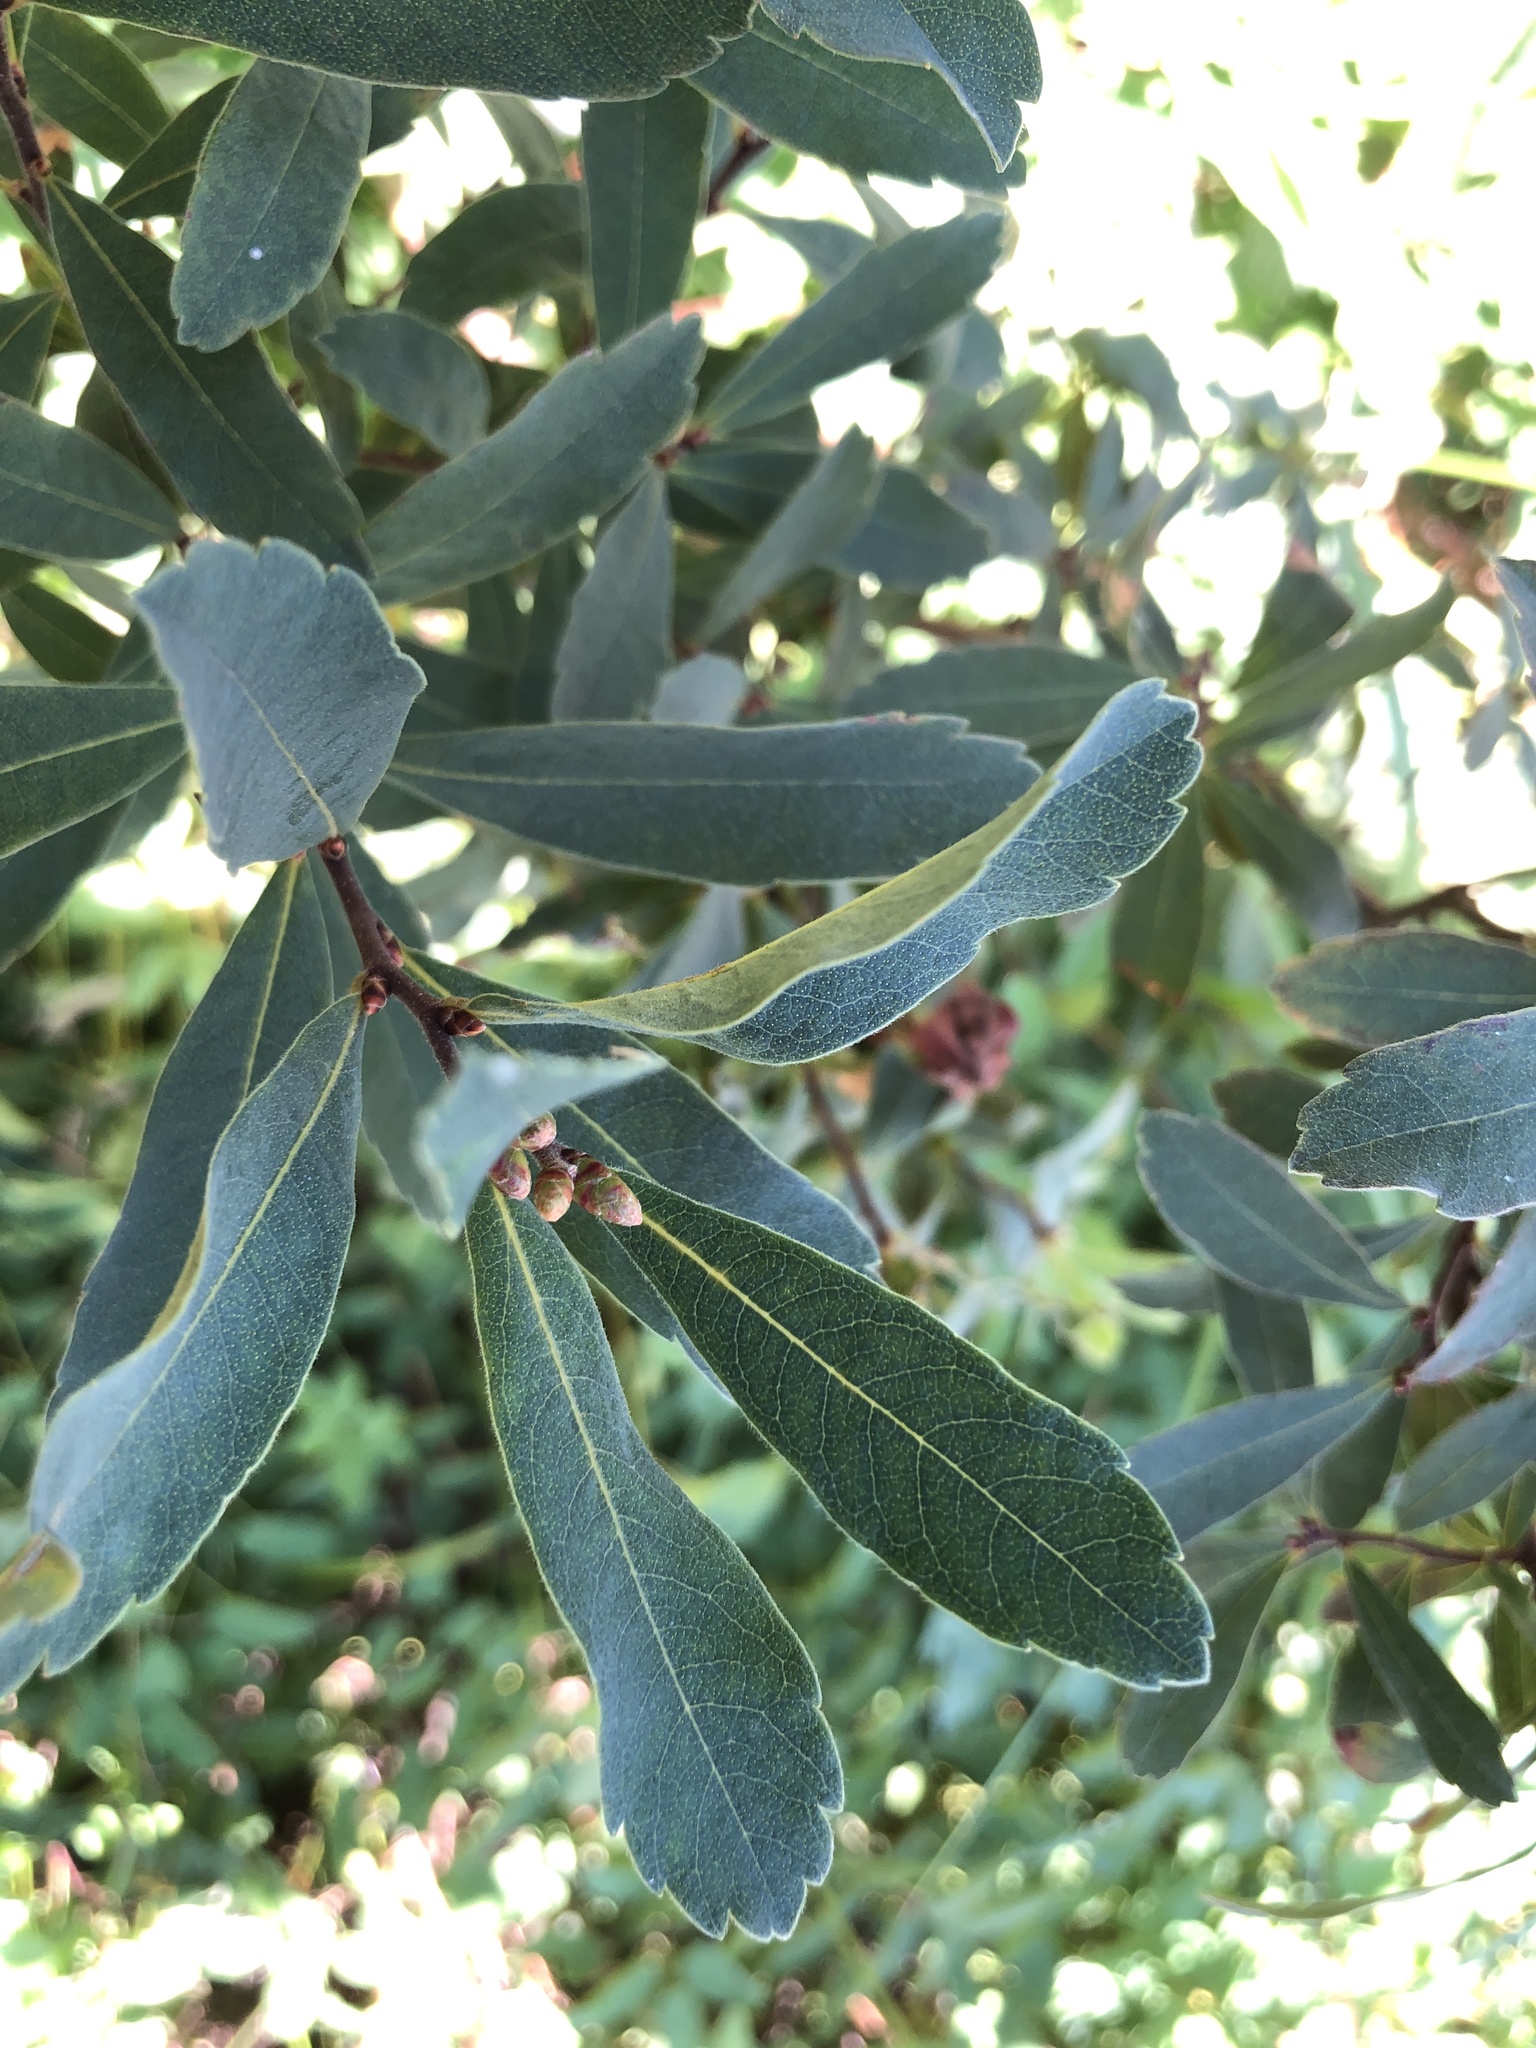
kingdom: Plantae
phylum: Tracheophyta
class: Magnoliopsida
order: Fagales
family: Myricaceae
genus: Myrica
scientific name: Myrica gale
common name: Sweet gale
